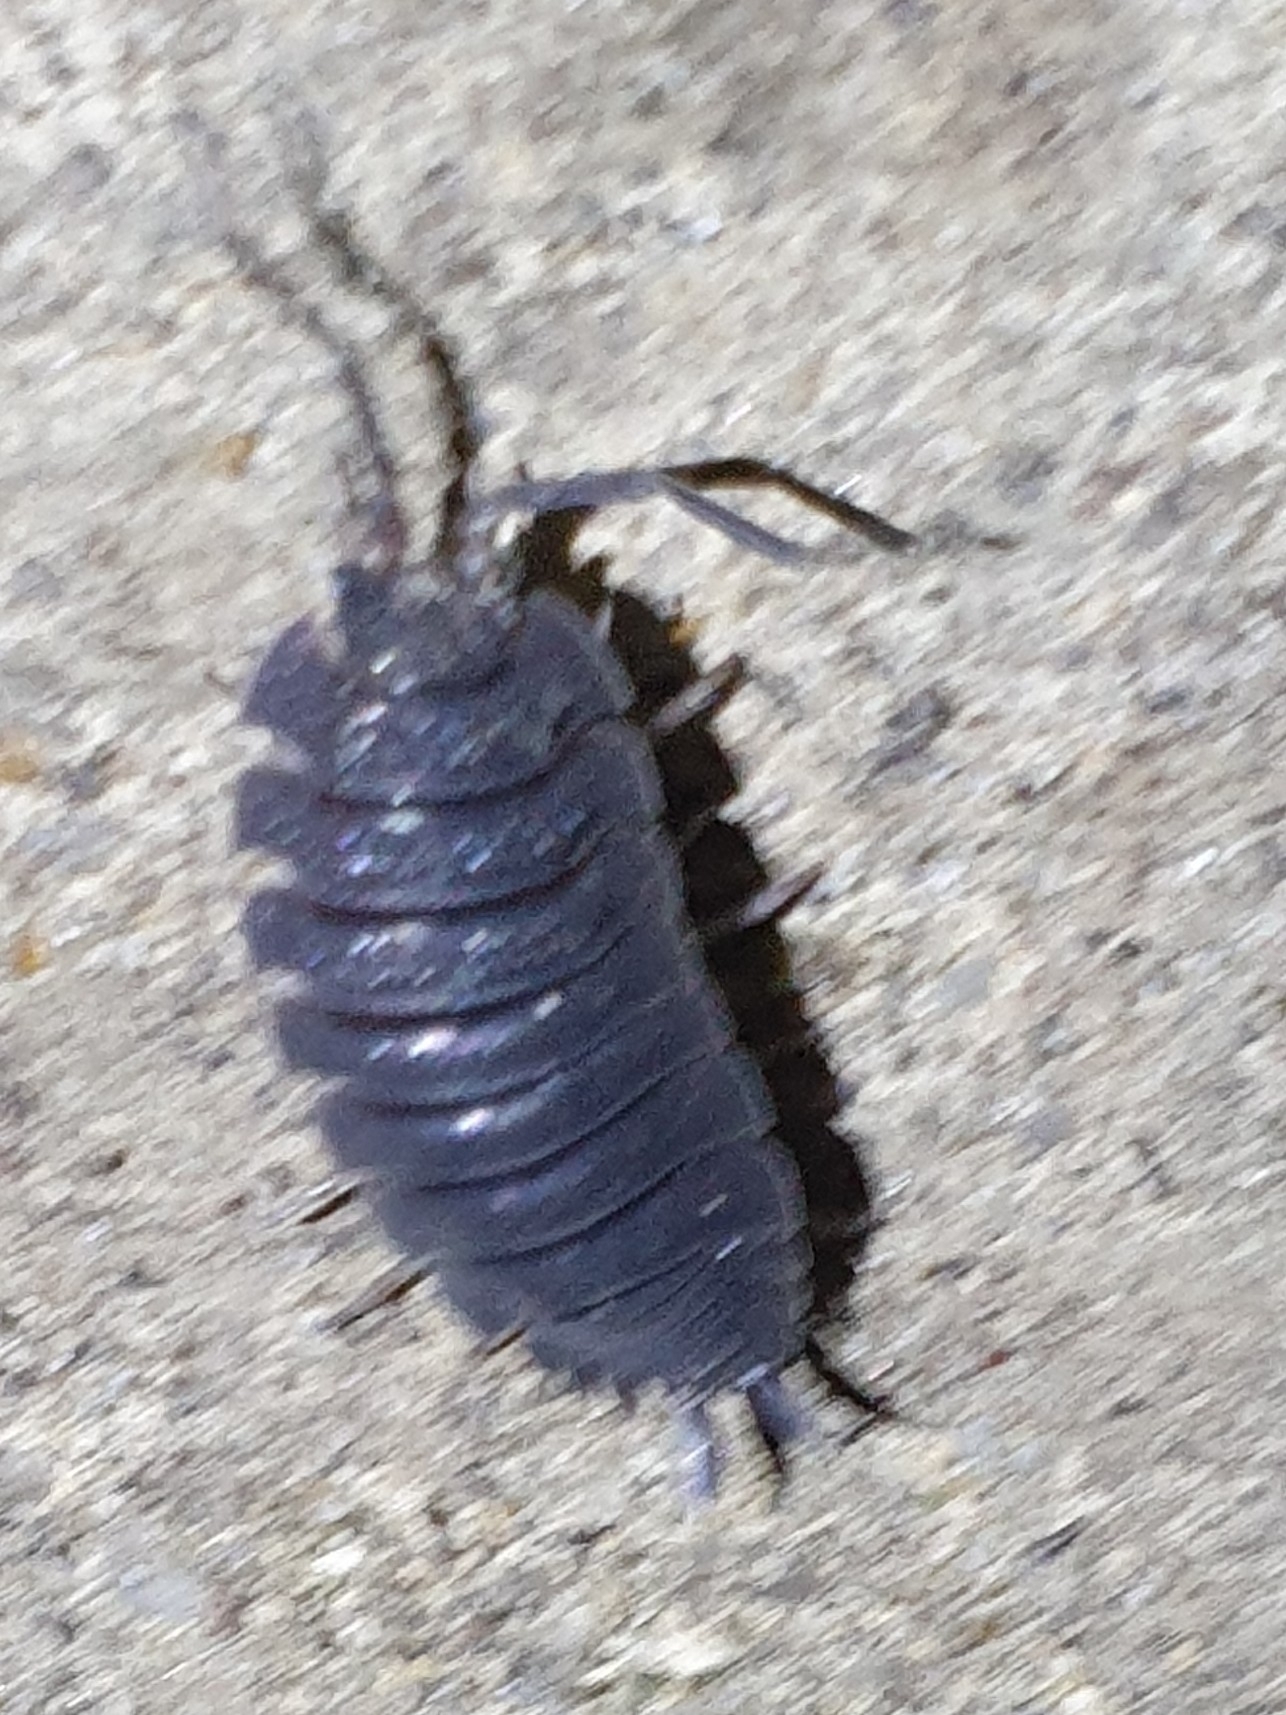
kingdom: Animalia
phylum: Arthropoda
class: Malacostraca
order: Isopoda
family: Porcellionidae
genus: Porcellio
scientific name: Porcellio scaber
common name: Common rough woodlouse
